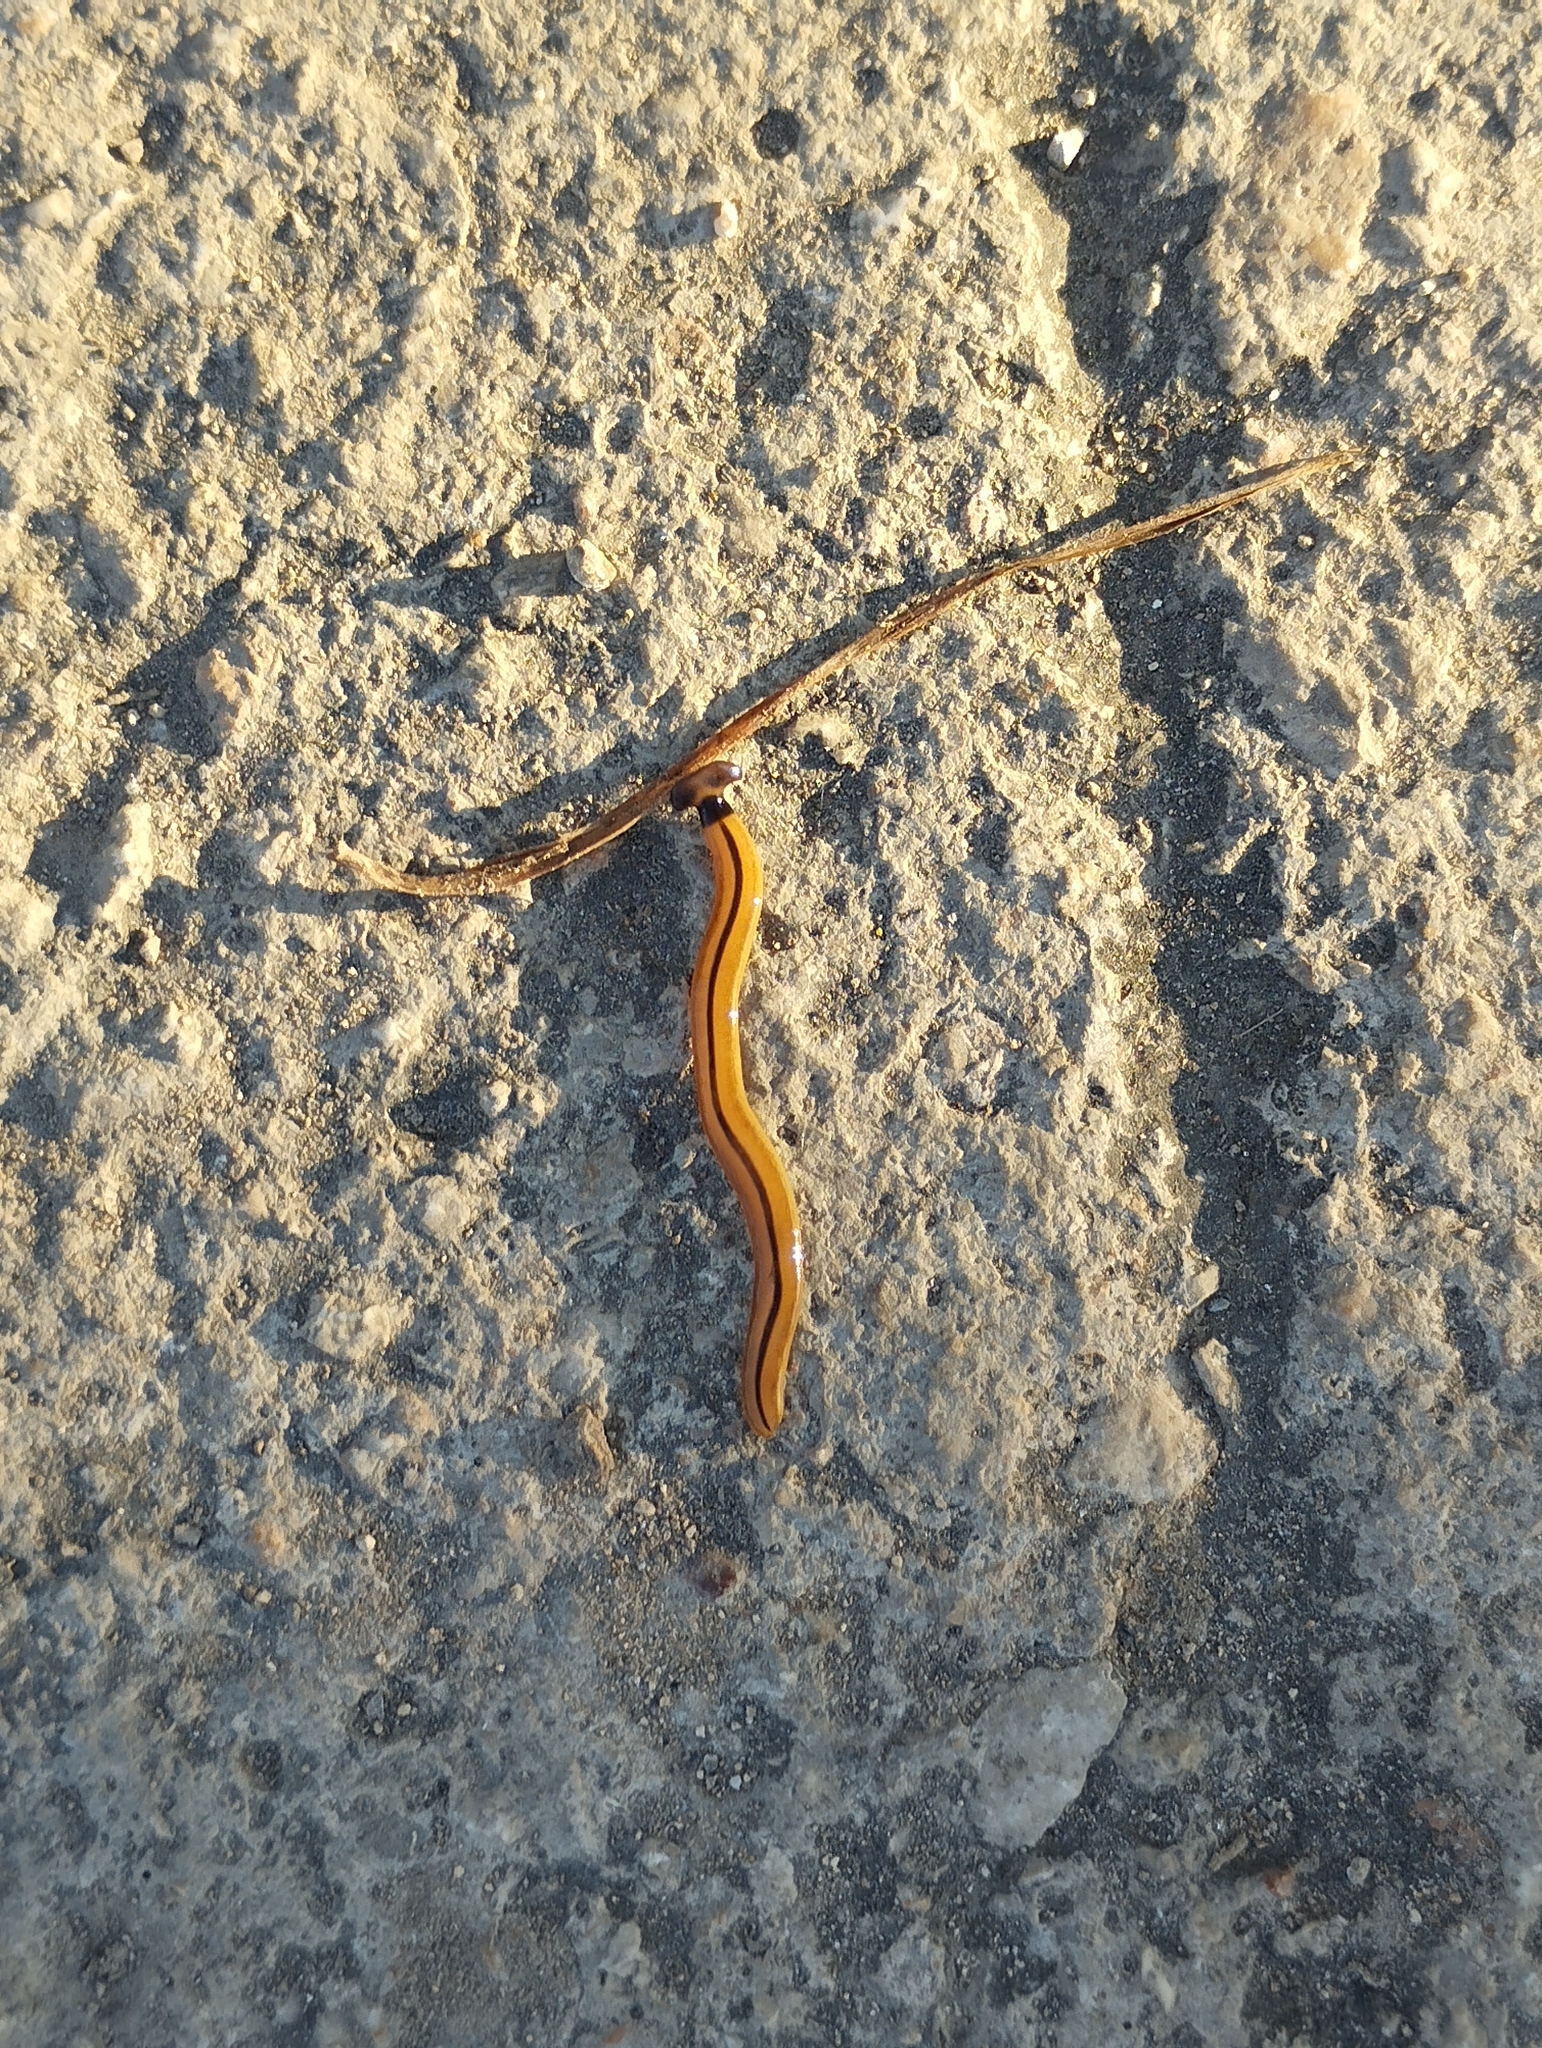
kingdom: Animalia
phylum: Platyhelminthes
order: Tricladida
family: Geoplanidae
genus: Bipalium
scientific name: Bipalium vagum
